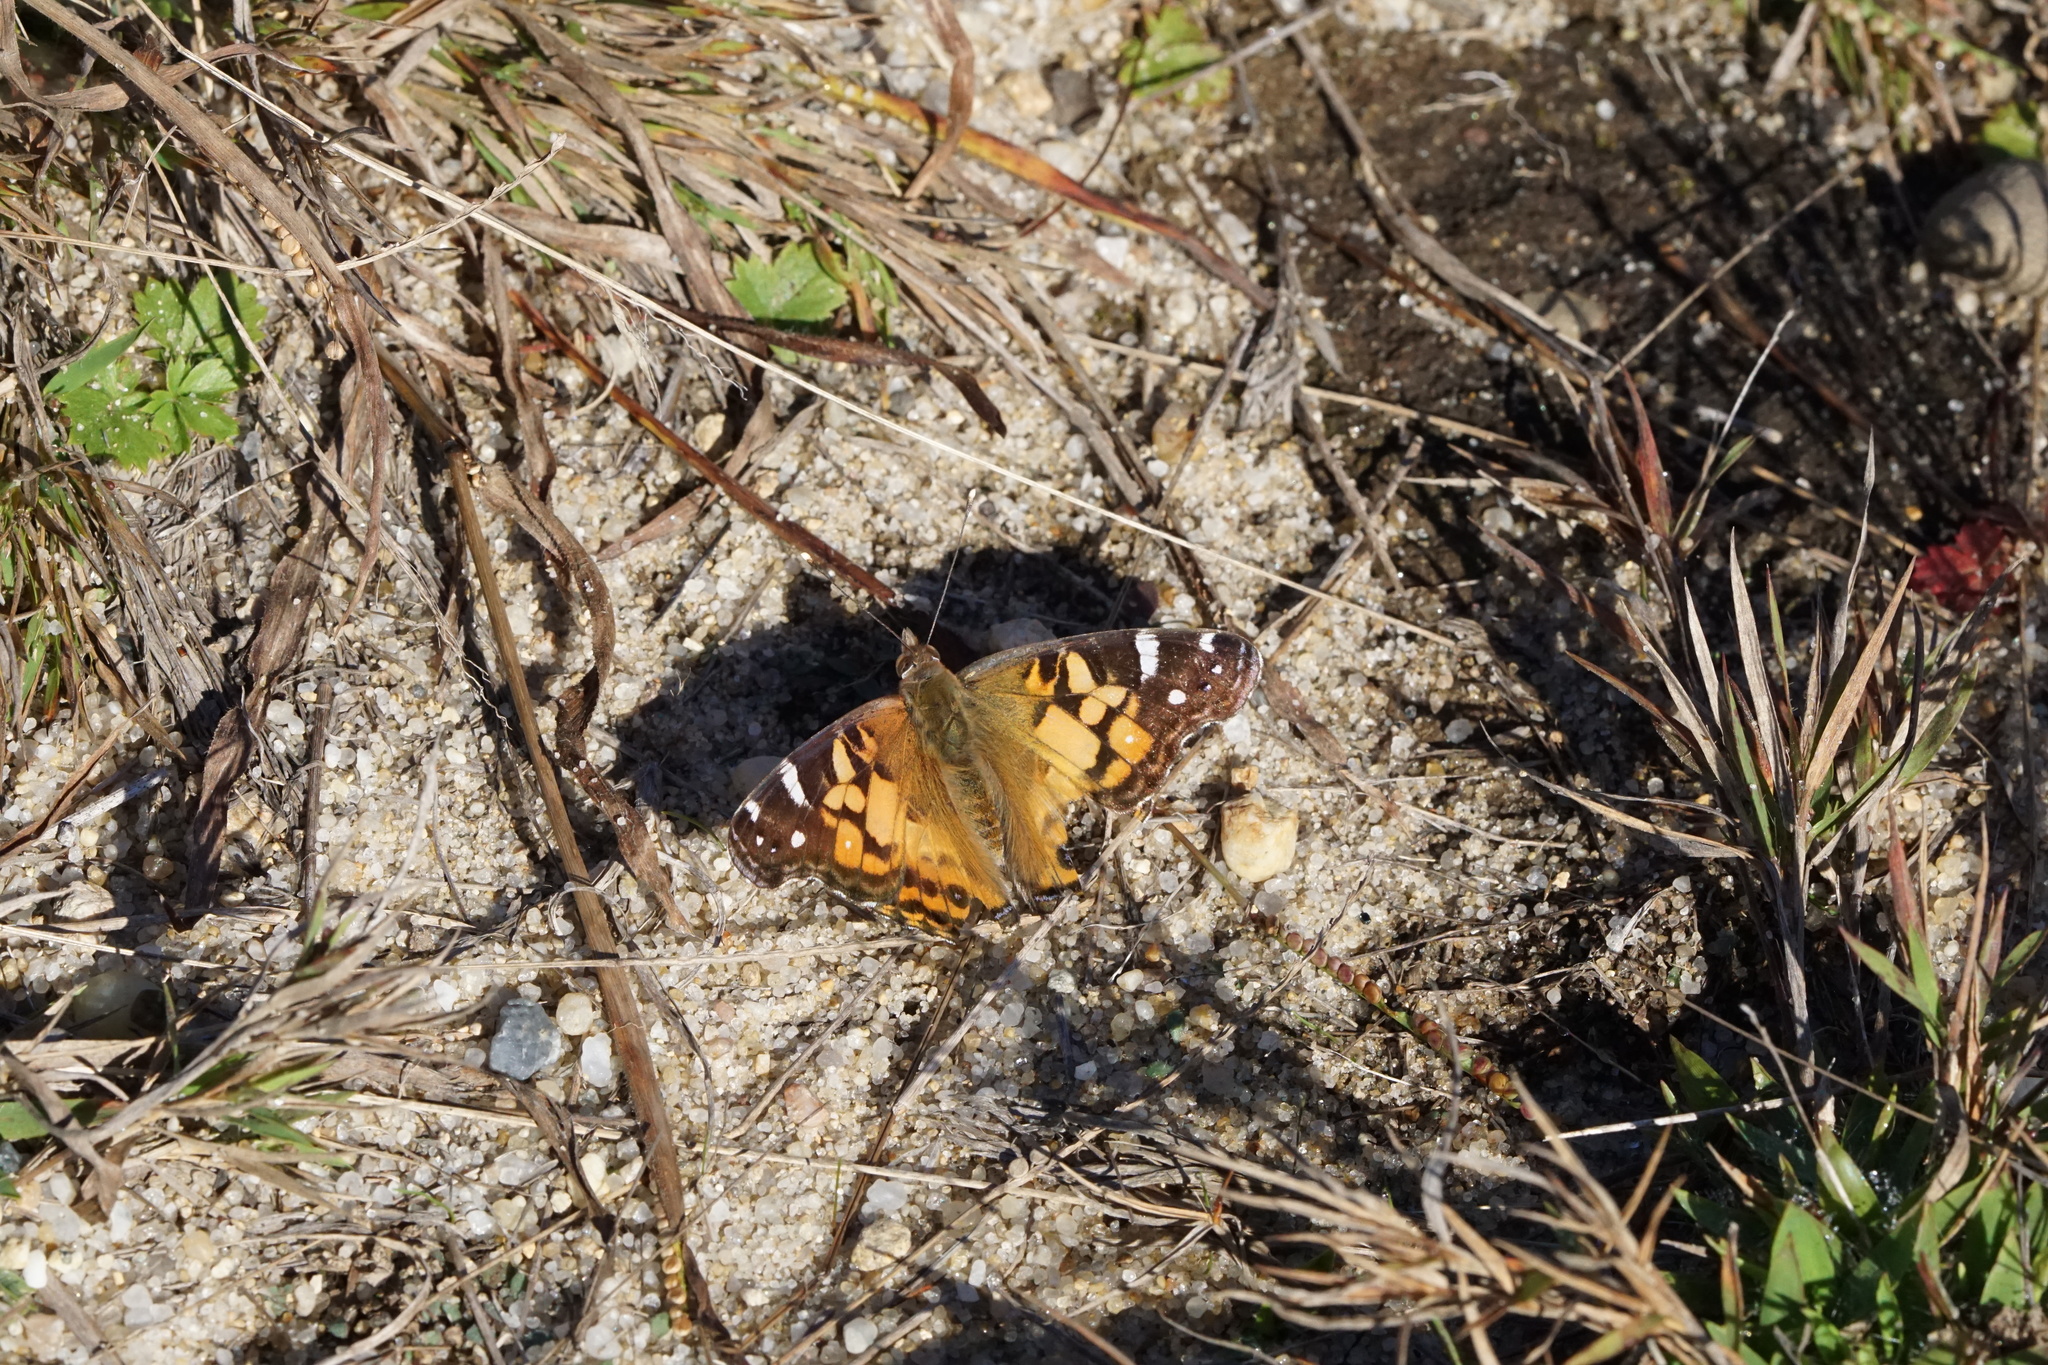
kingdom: Animalia
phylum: Arthropoda
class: Insecta
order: Lepidoptera
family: Nymphalidae
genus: Vanessa
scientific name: Vanessa virginiensis
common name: American lady
